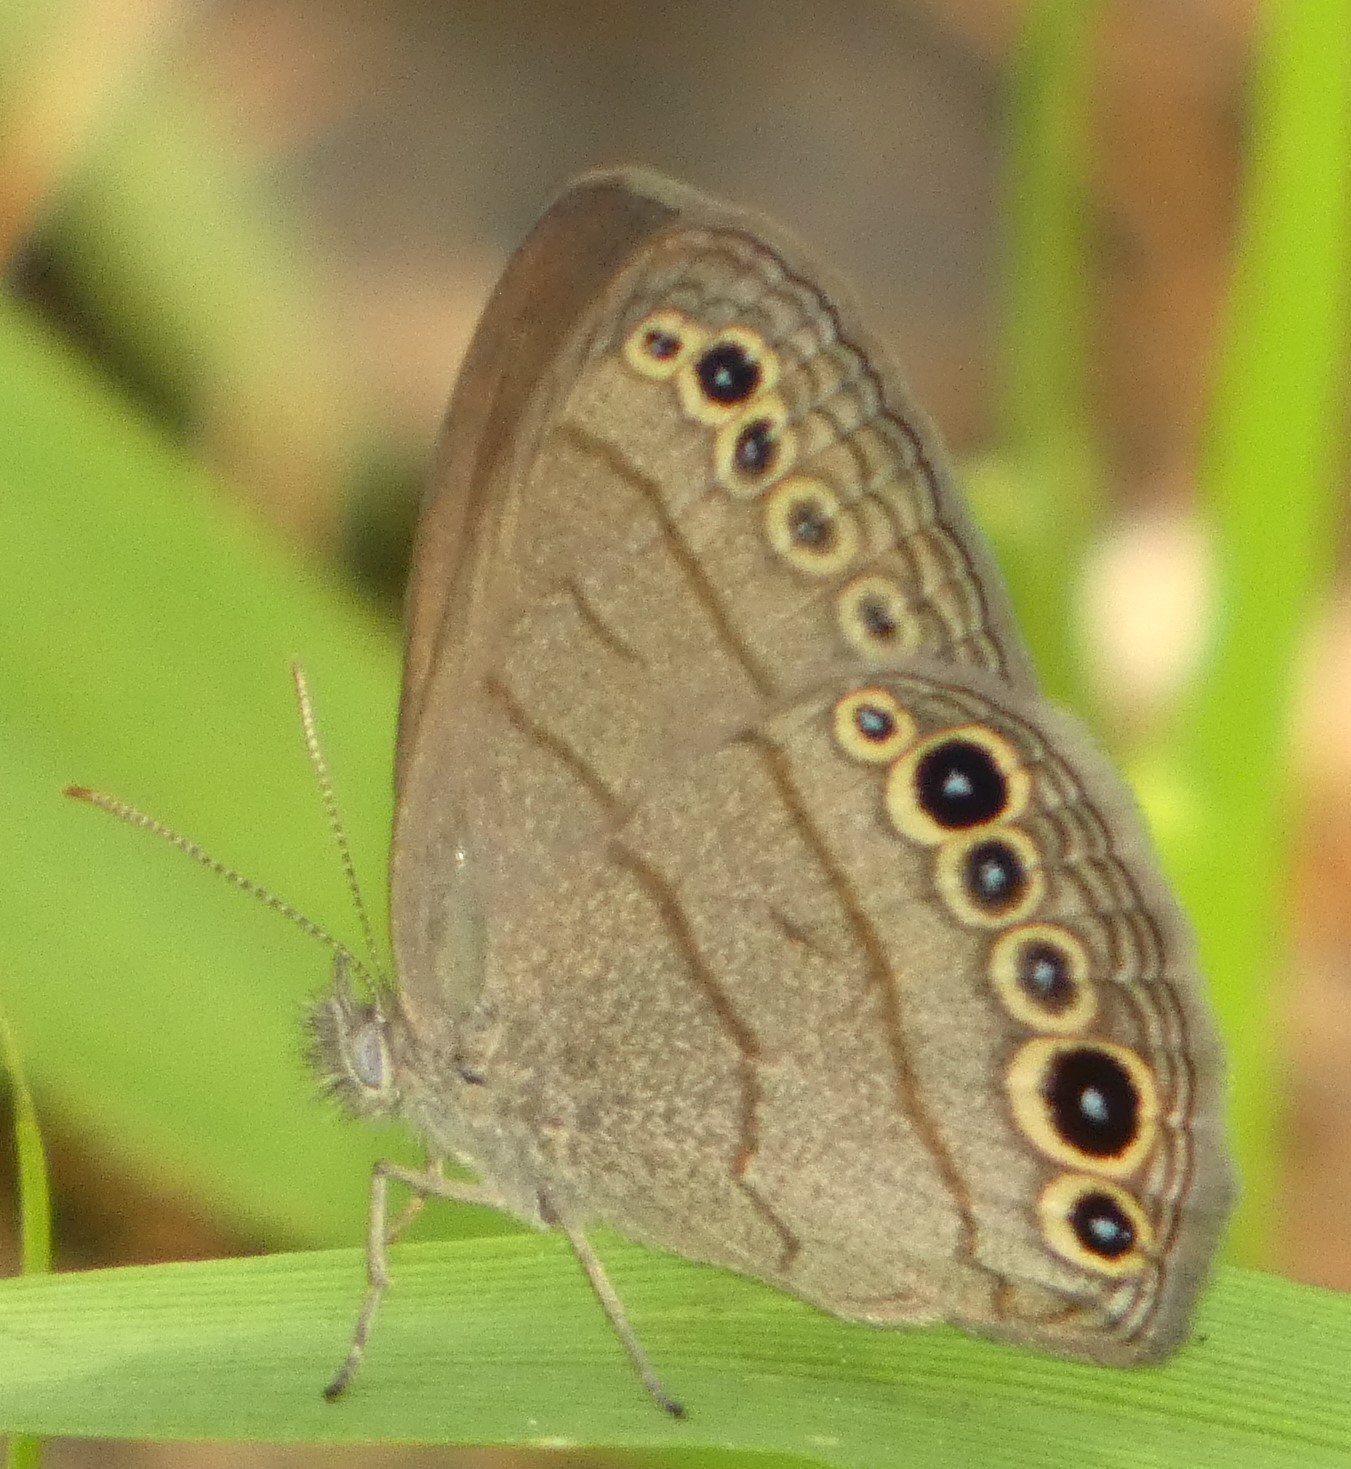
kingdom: Animalia
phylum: Arthropoda
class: Insecta
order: Lepidoptera
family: Nymphalidae
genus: Hermeuptychia
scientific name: Hermeuptychia intricata
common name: Intricate satyr
